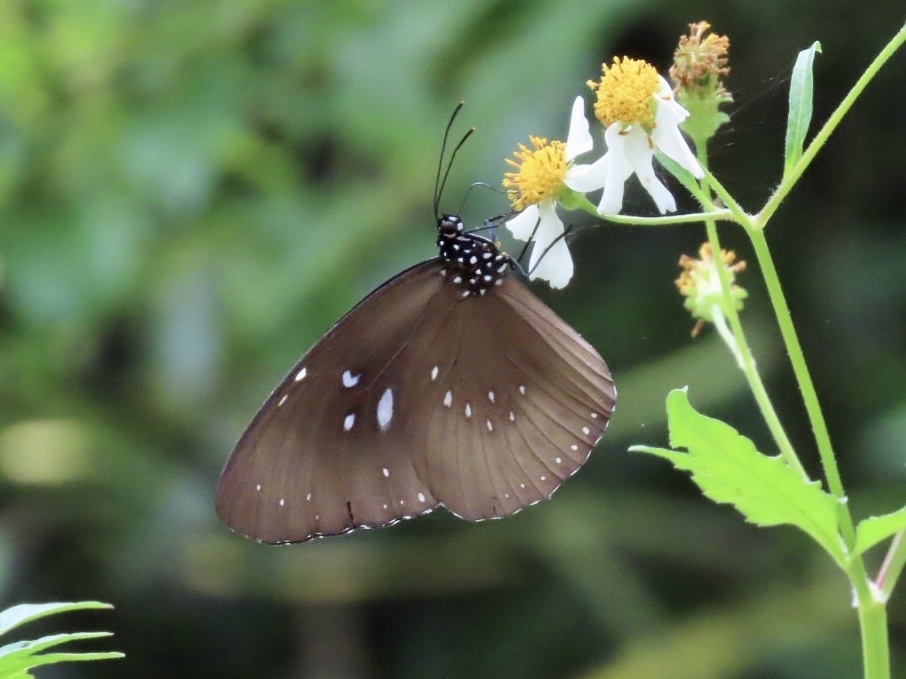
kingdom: Animalia
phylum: Arthropoda
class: Insecta
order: Lepidoptera
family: Nymphalidae
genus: Euploea
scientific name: Euploea midamus
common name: Blue-spotted crow butterfly
